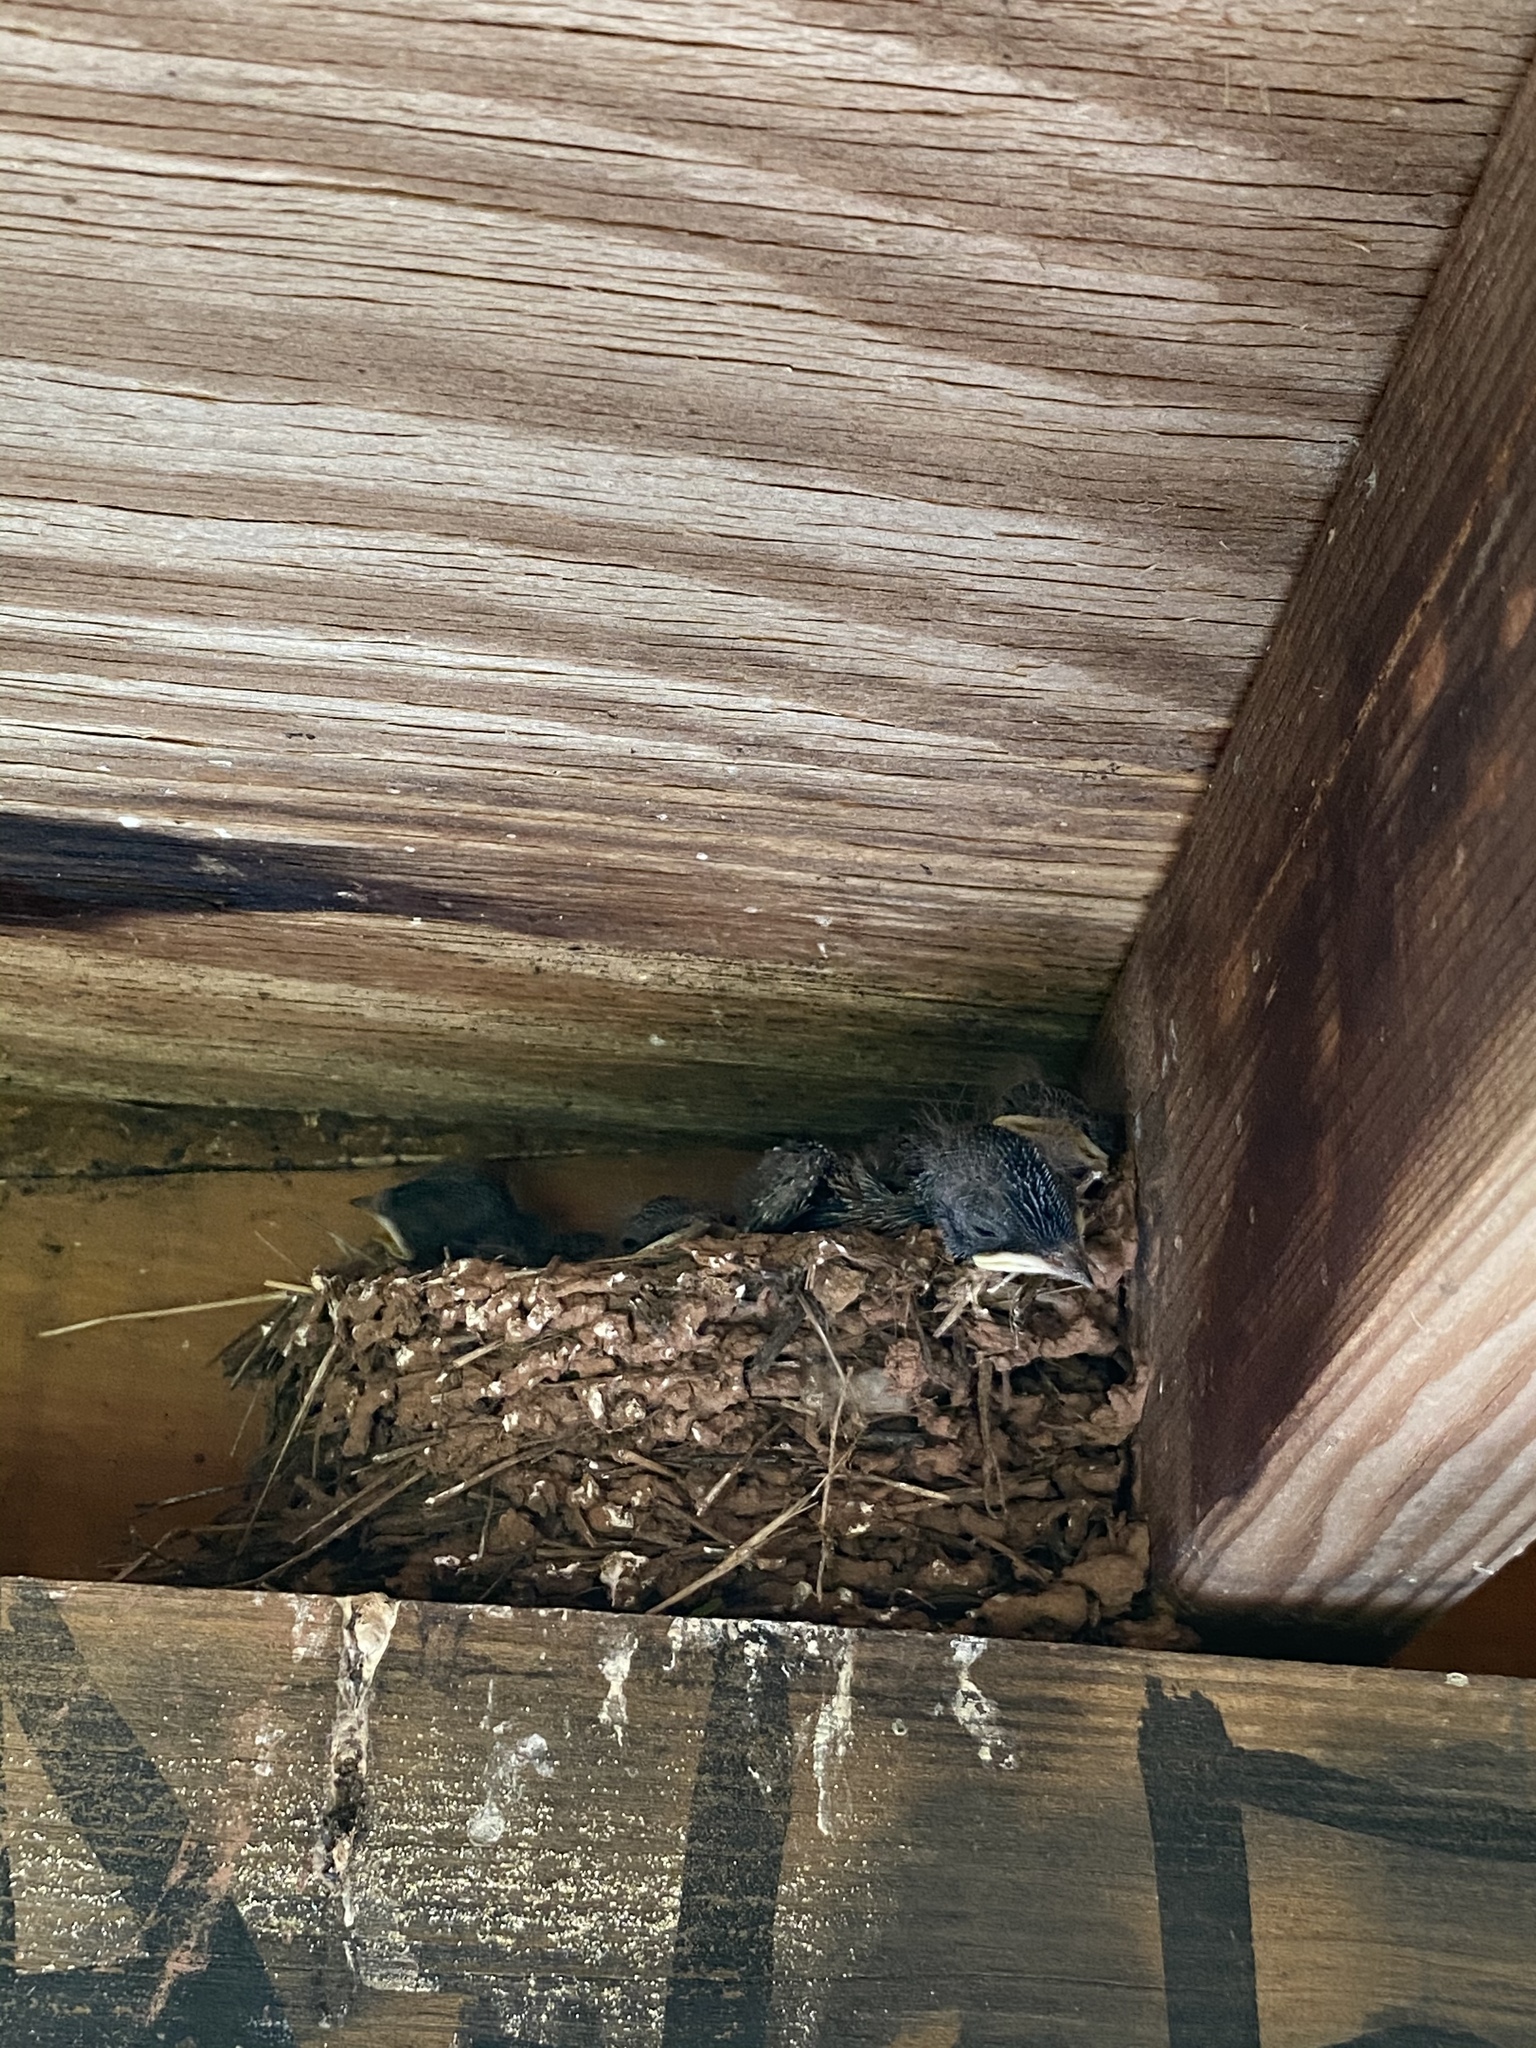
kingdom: Animalia
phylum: Chordata
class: Aves
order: Passeriformes
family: Hirundinidae
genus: Hirundo
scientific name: Hirundo rustica
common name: Barn swallow
